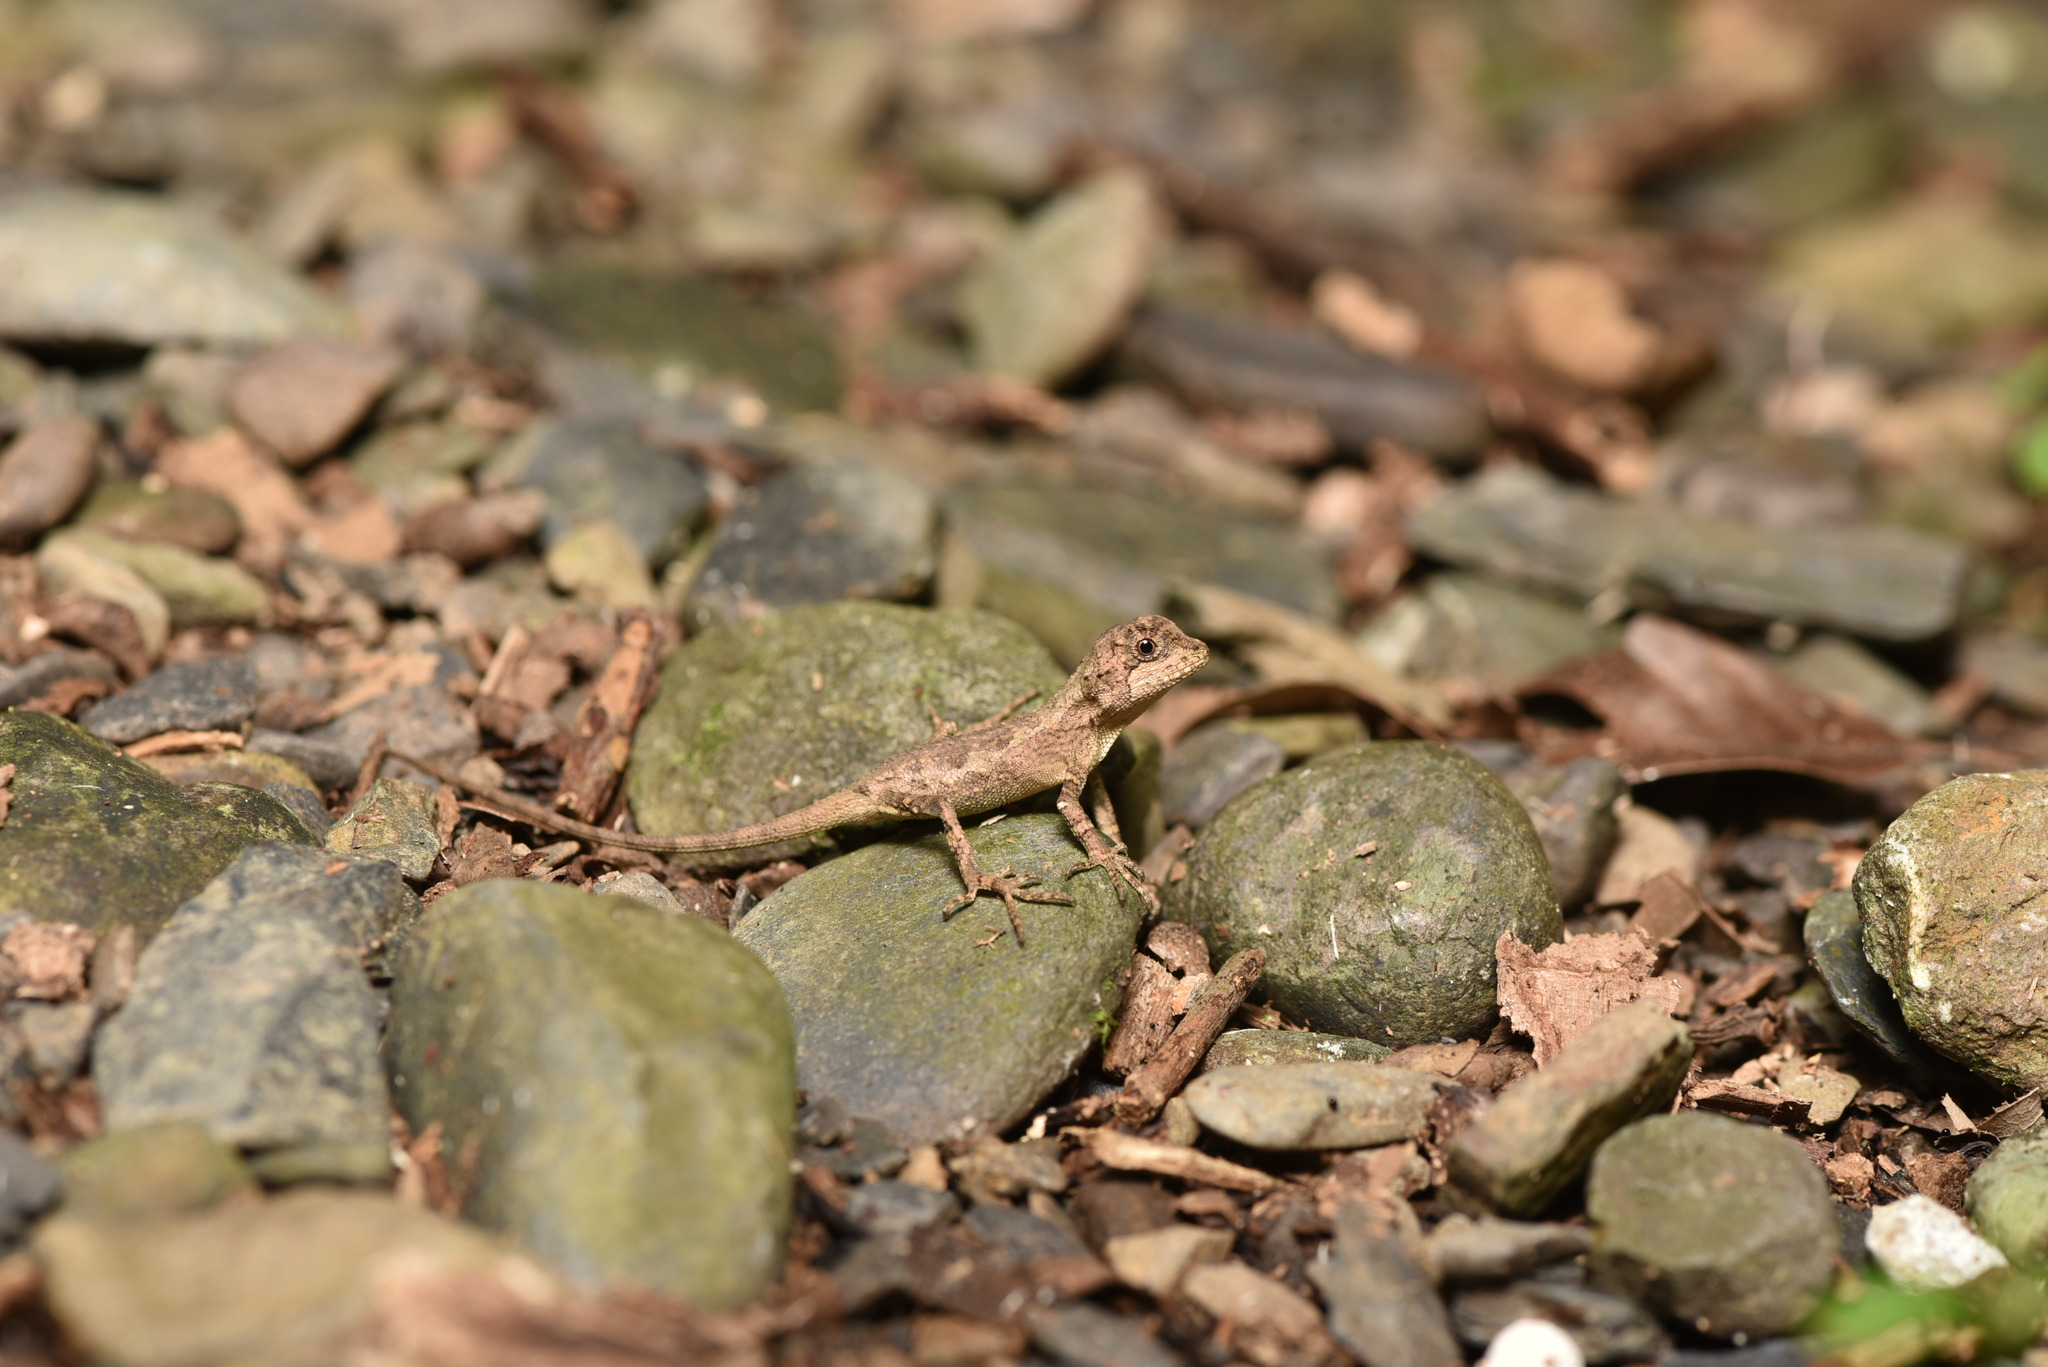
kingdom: Fungi
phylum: Basidiomycota
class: Agaricomycetes
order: Boletales
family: Diplocystidiaceae
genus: Diploderma
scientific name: Diploderma polygonatum
